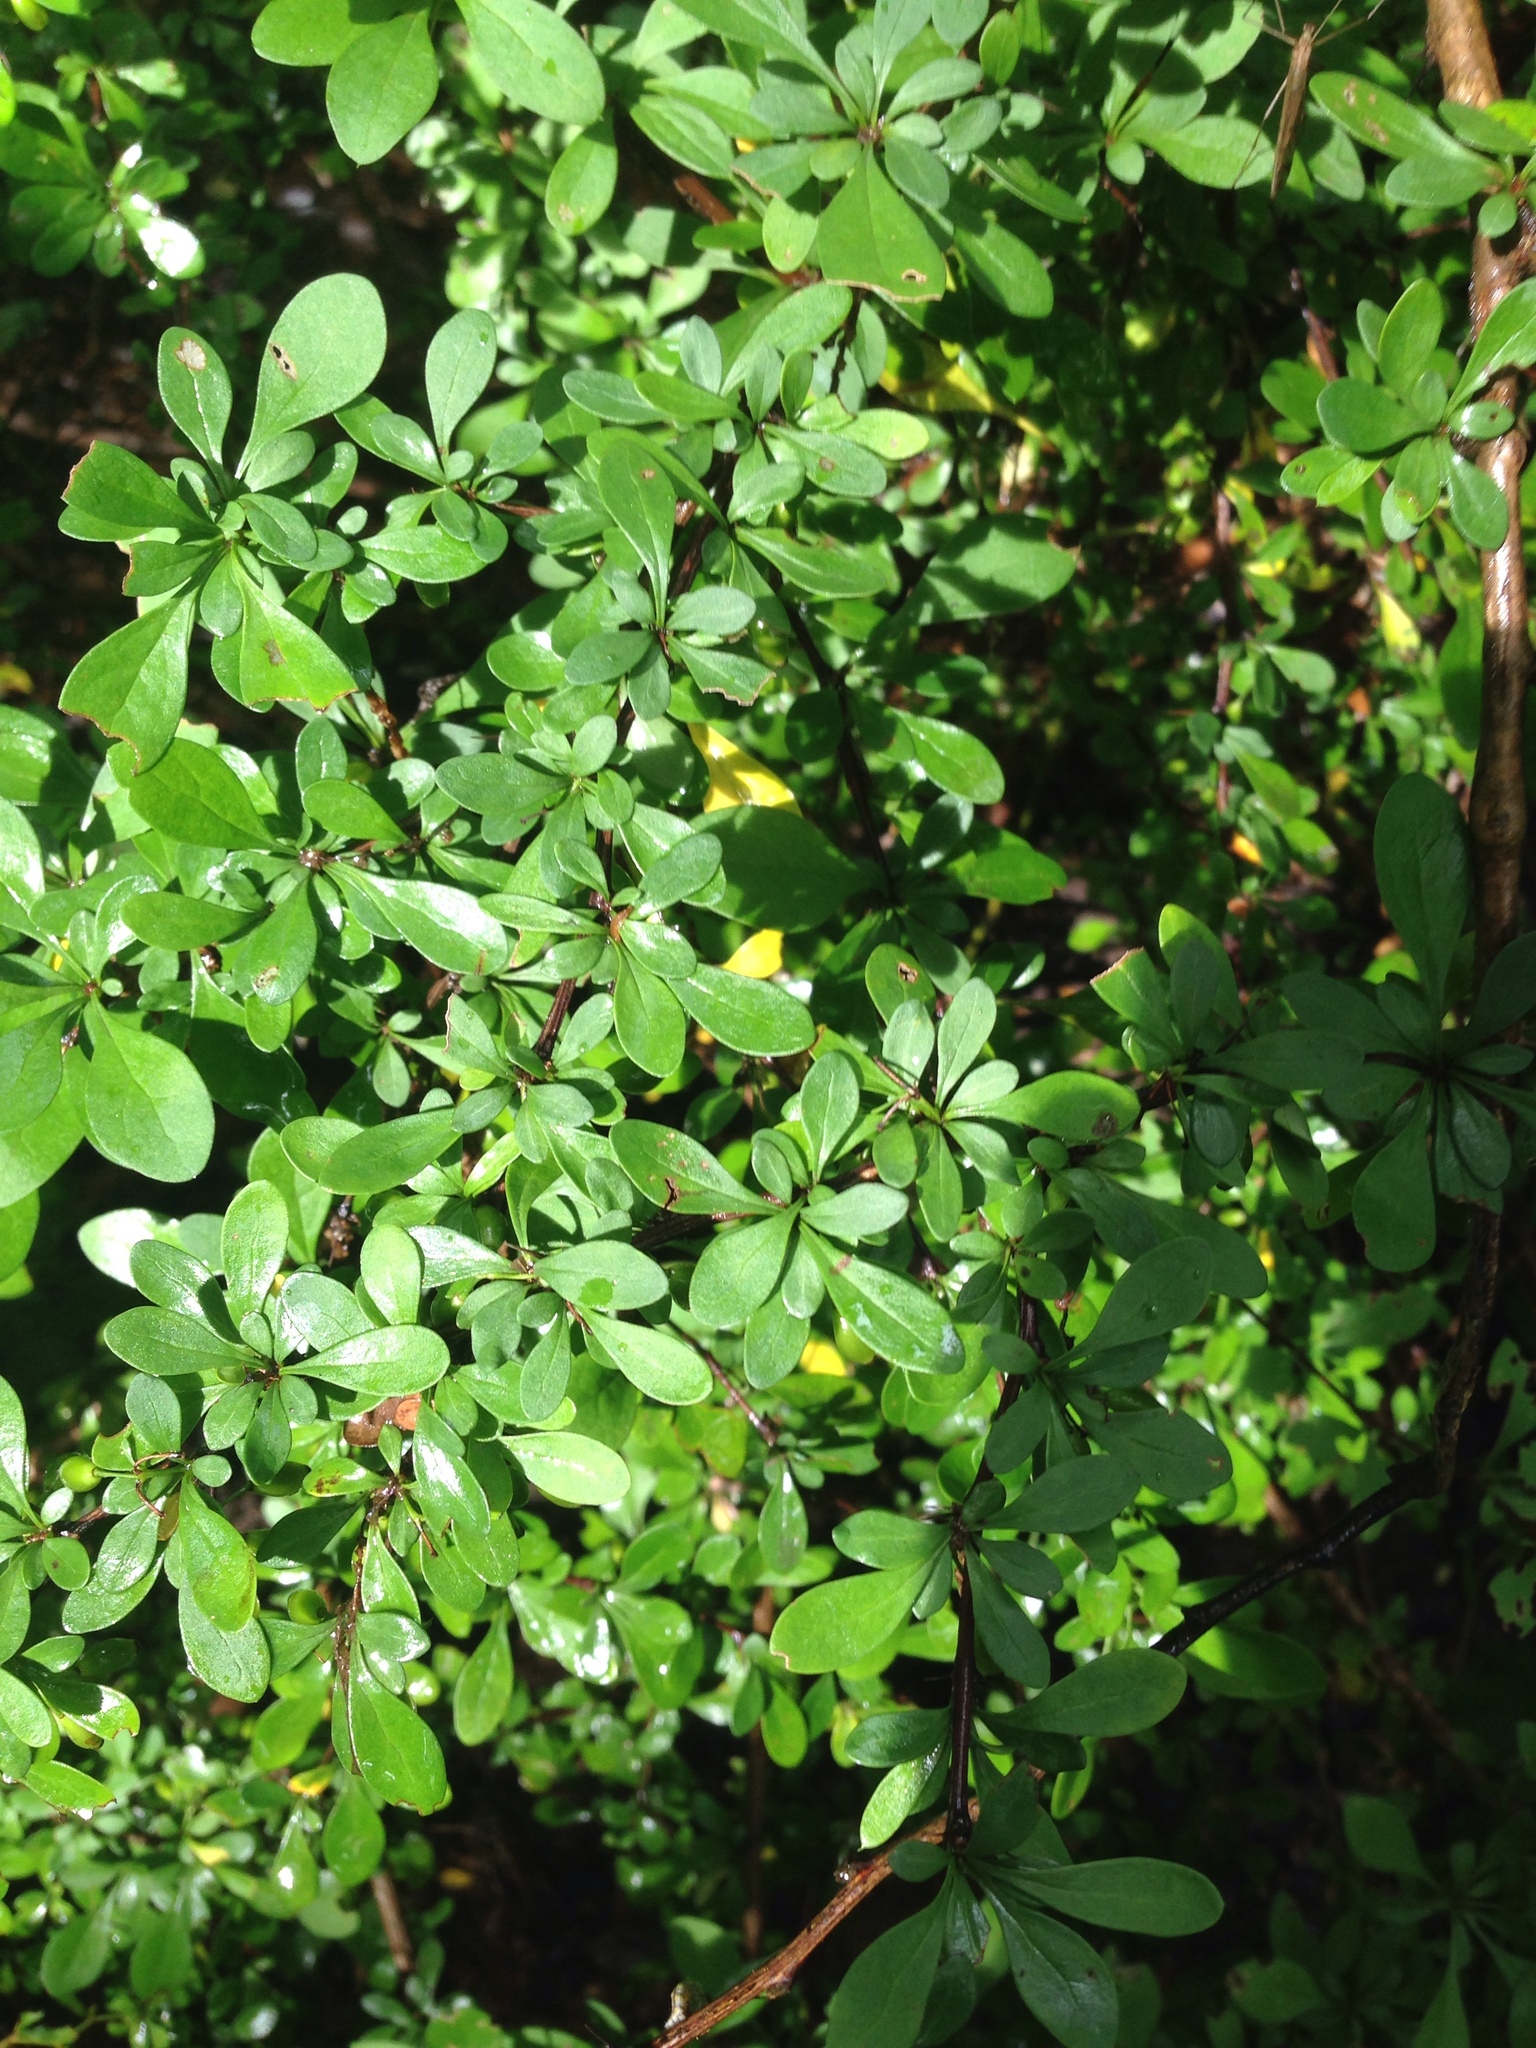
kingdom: Plantae
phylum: Tracheophyta
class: Magnoliopsida
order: Ranunculales
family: Berberidaceae
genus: Berberis
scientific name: Berberis thunbergii
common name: Japanese barberry
